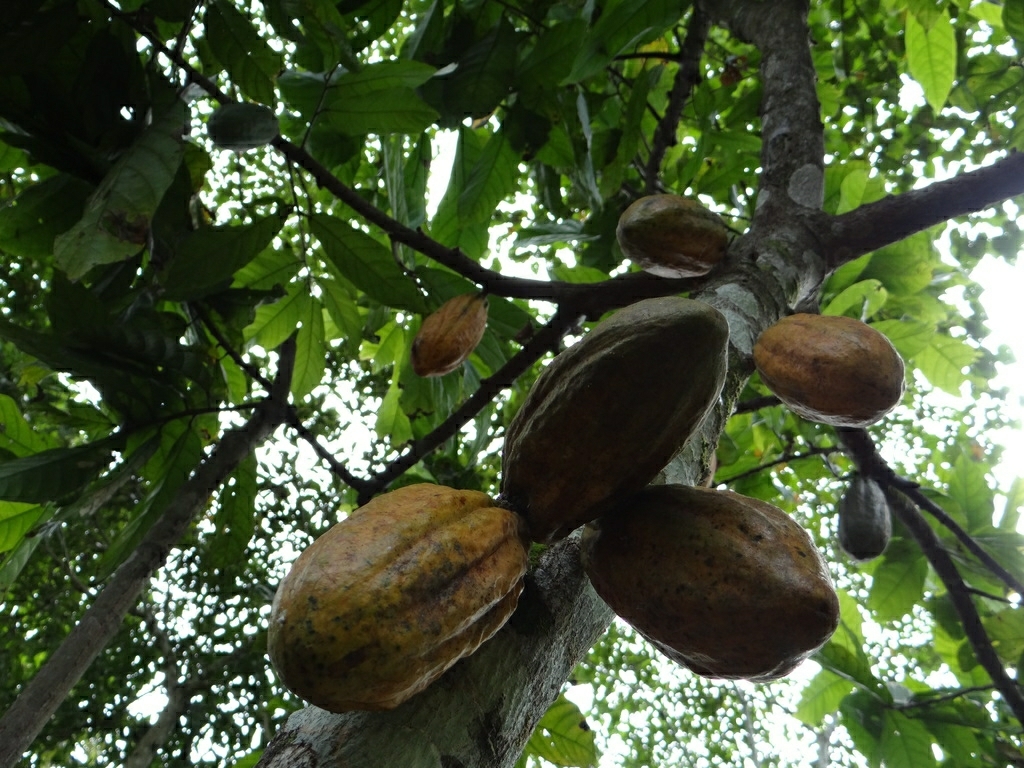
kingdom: Plantae
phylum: Tracheophyta
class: Magnoliopsida
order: Malvales
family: Malvaceae
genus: Theobroma
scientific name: Theobroma cacao
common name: Cocoa
